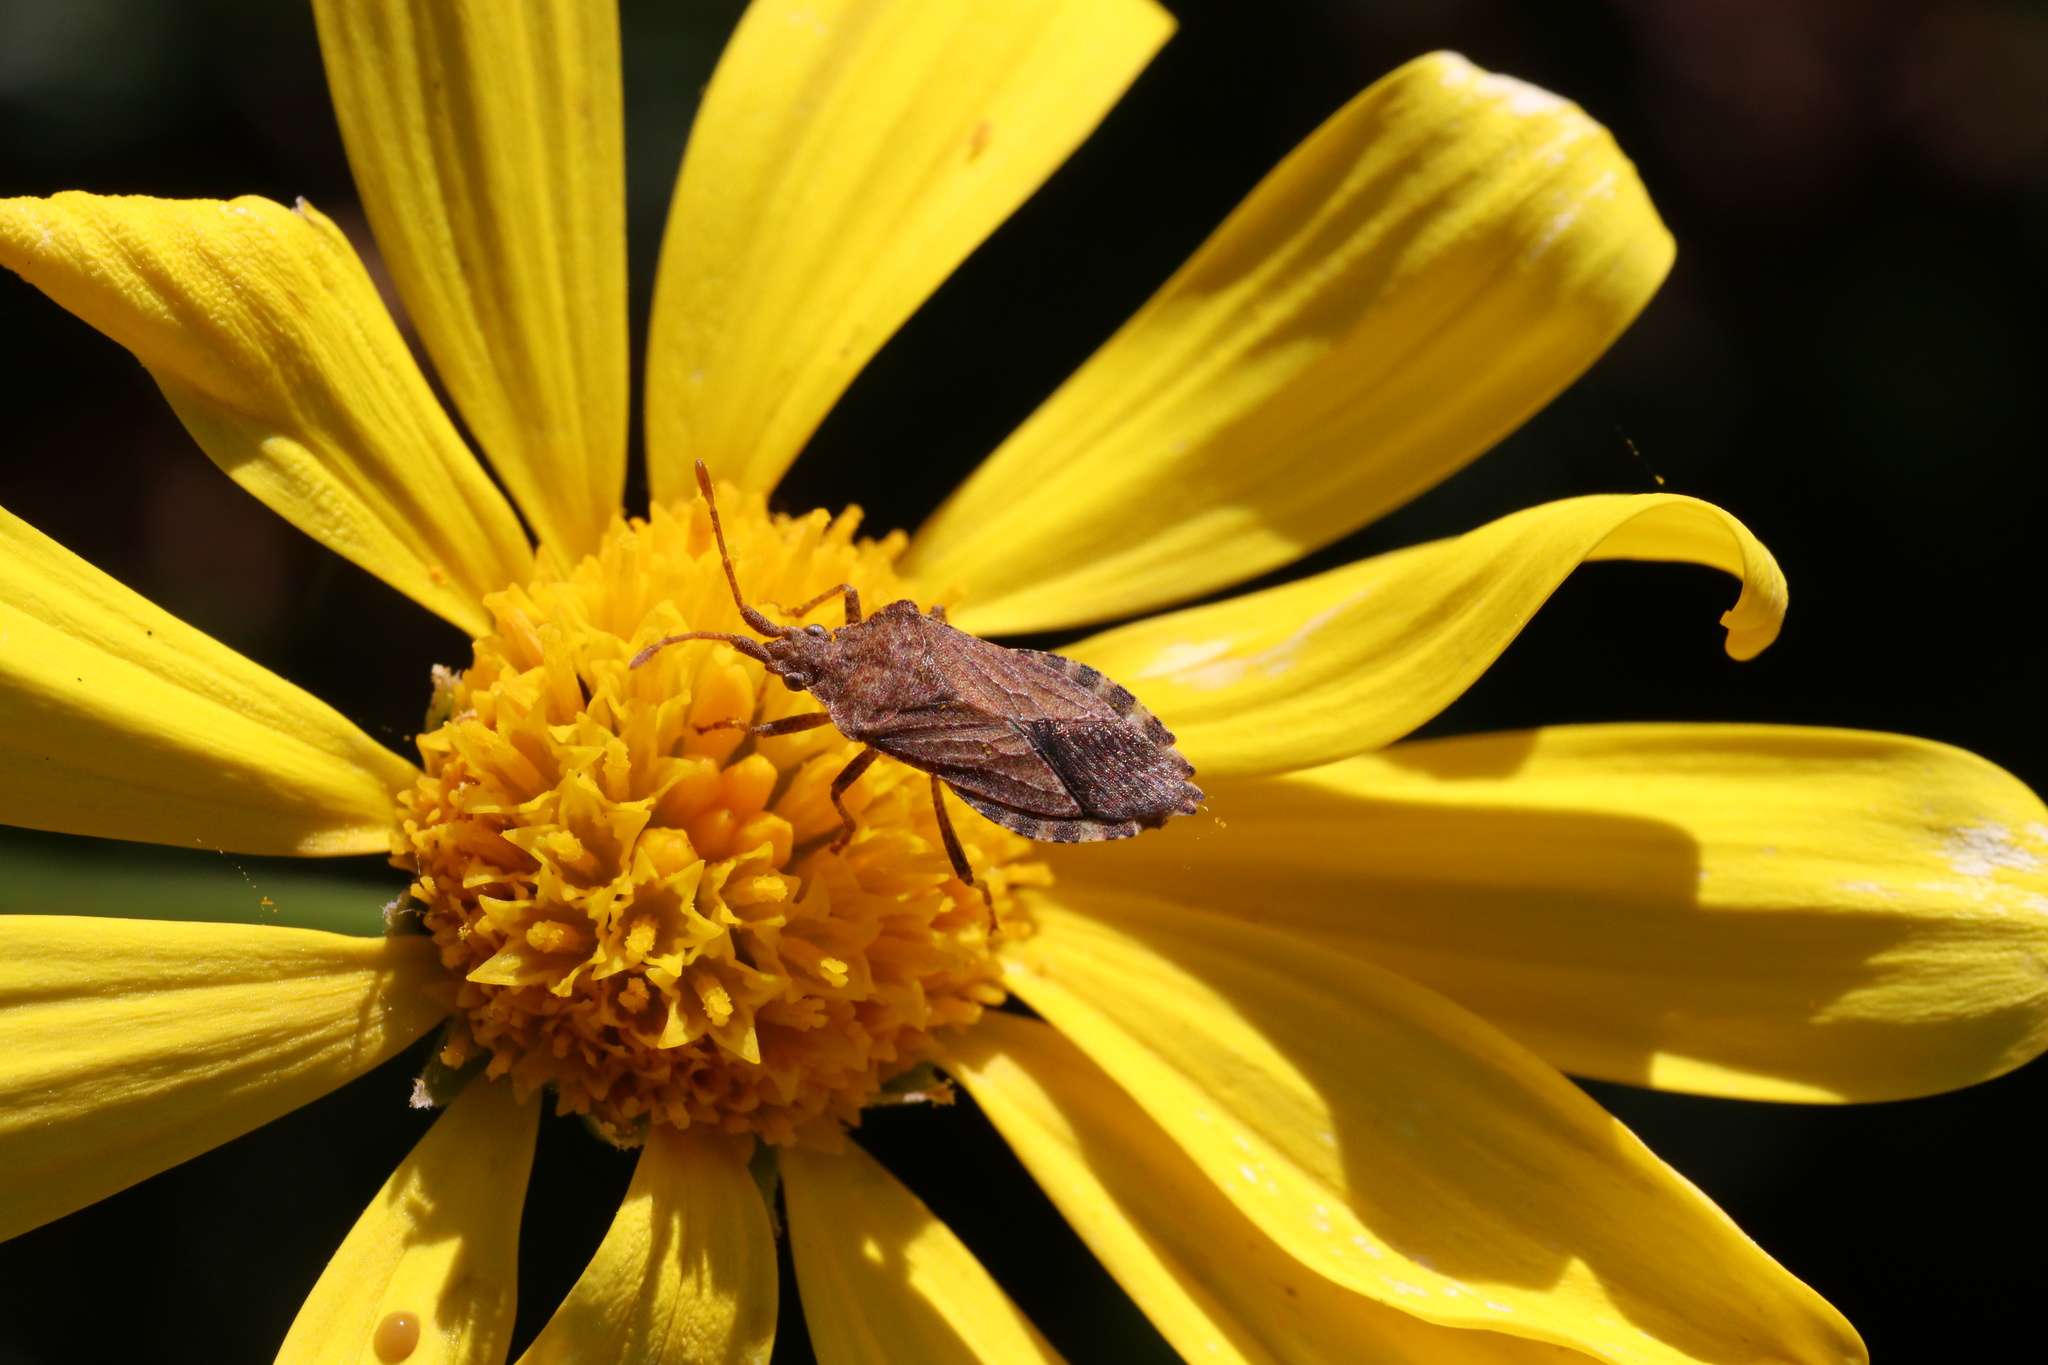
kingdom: Animalia
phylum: Arthropoda
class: Insecta
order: Hemiptera
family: Coreidae
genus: Althos
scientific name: Althos
